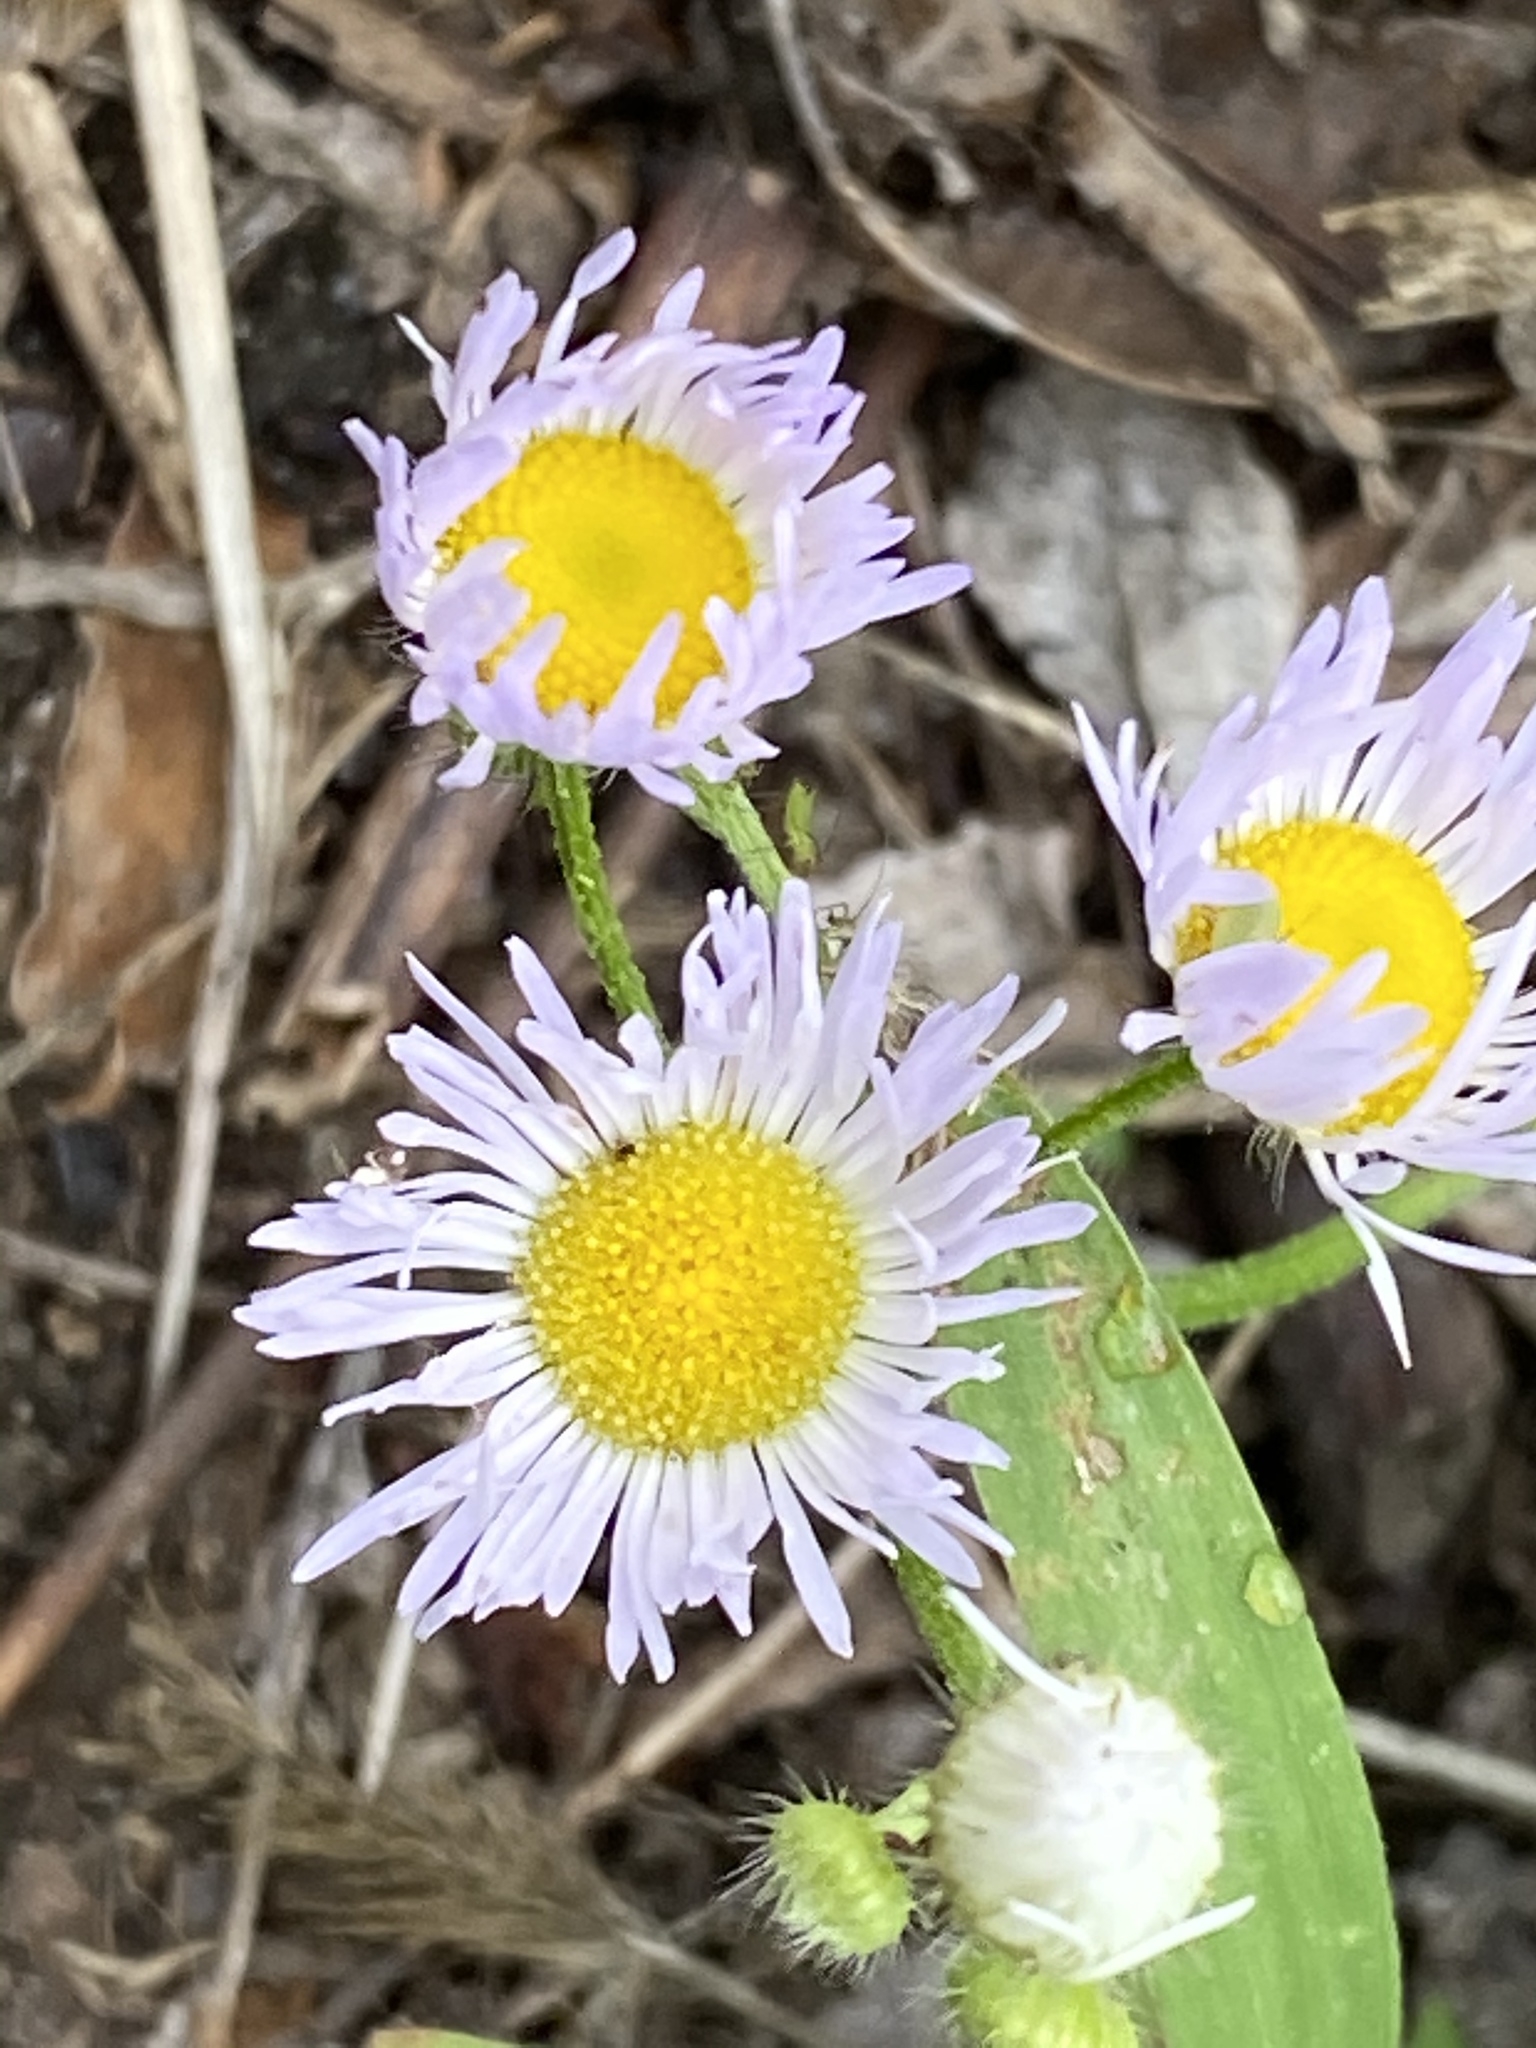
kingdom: Plantae
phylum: Tracheophyta
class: Magnoliopsida
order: Asterales
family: Asteraceae
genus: Erigeron
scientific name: Erigeron annuus
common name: Tall fleabane
